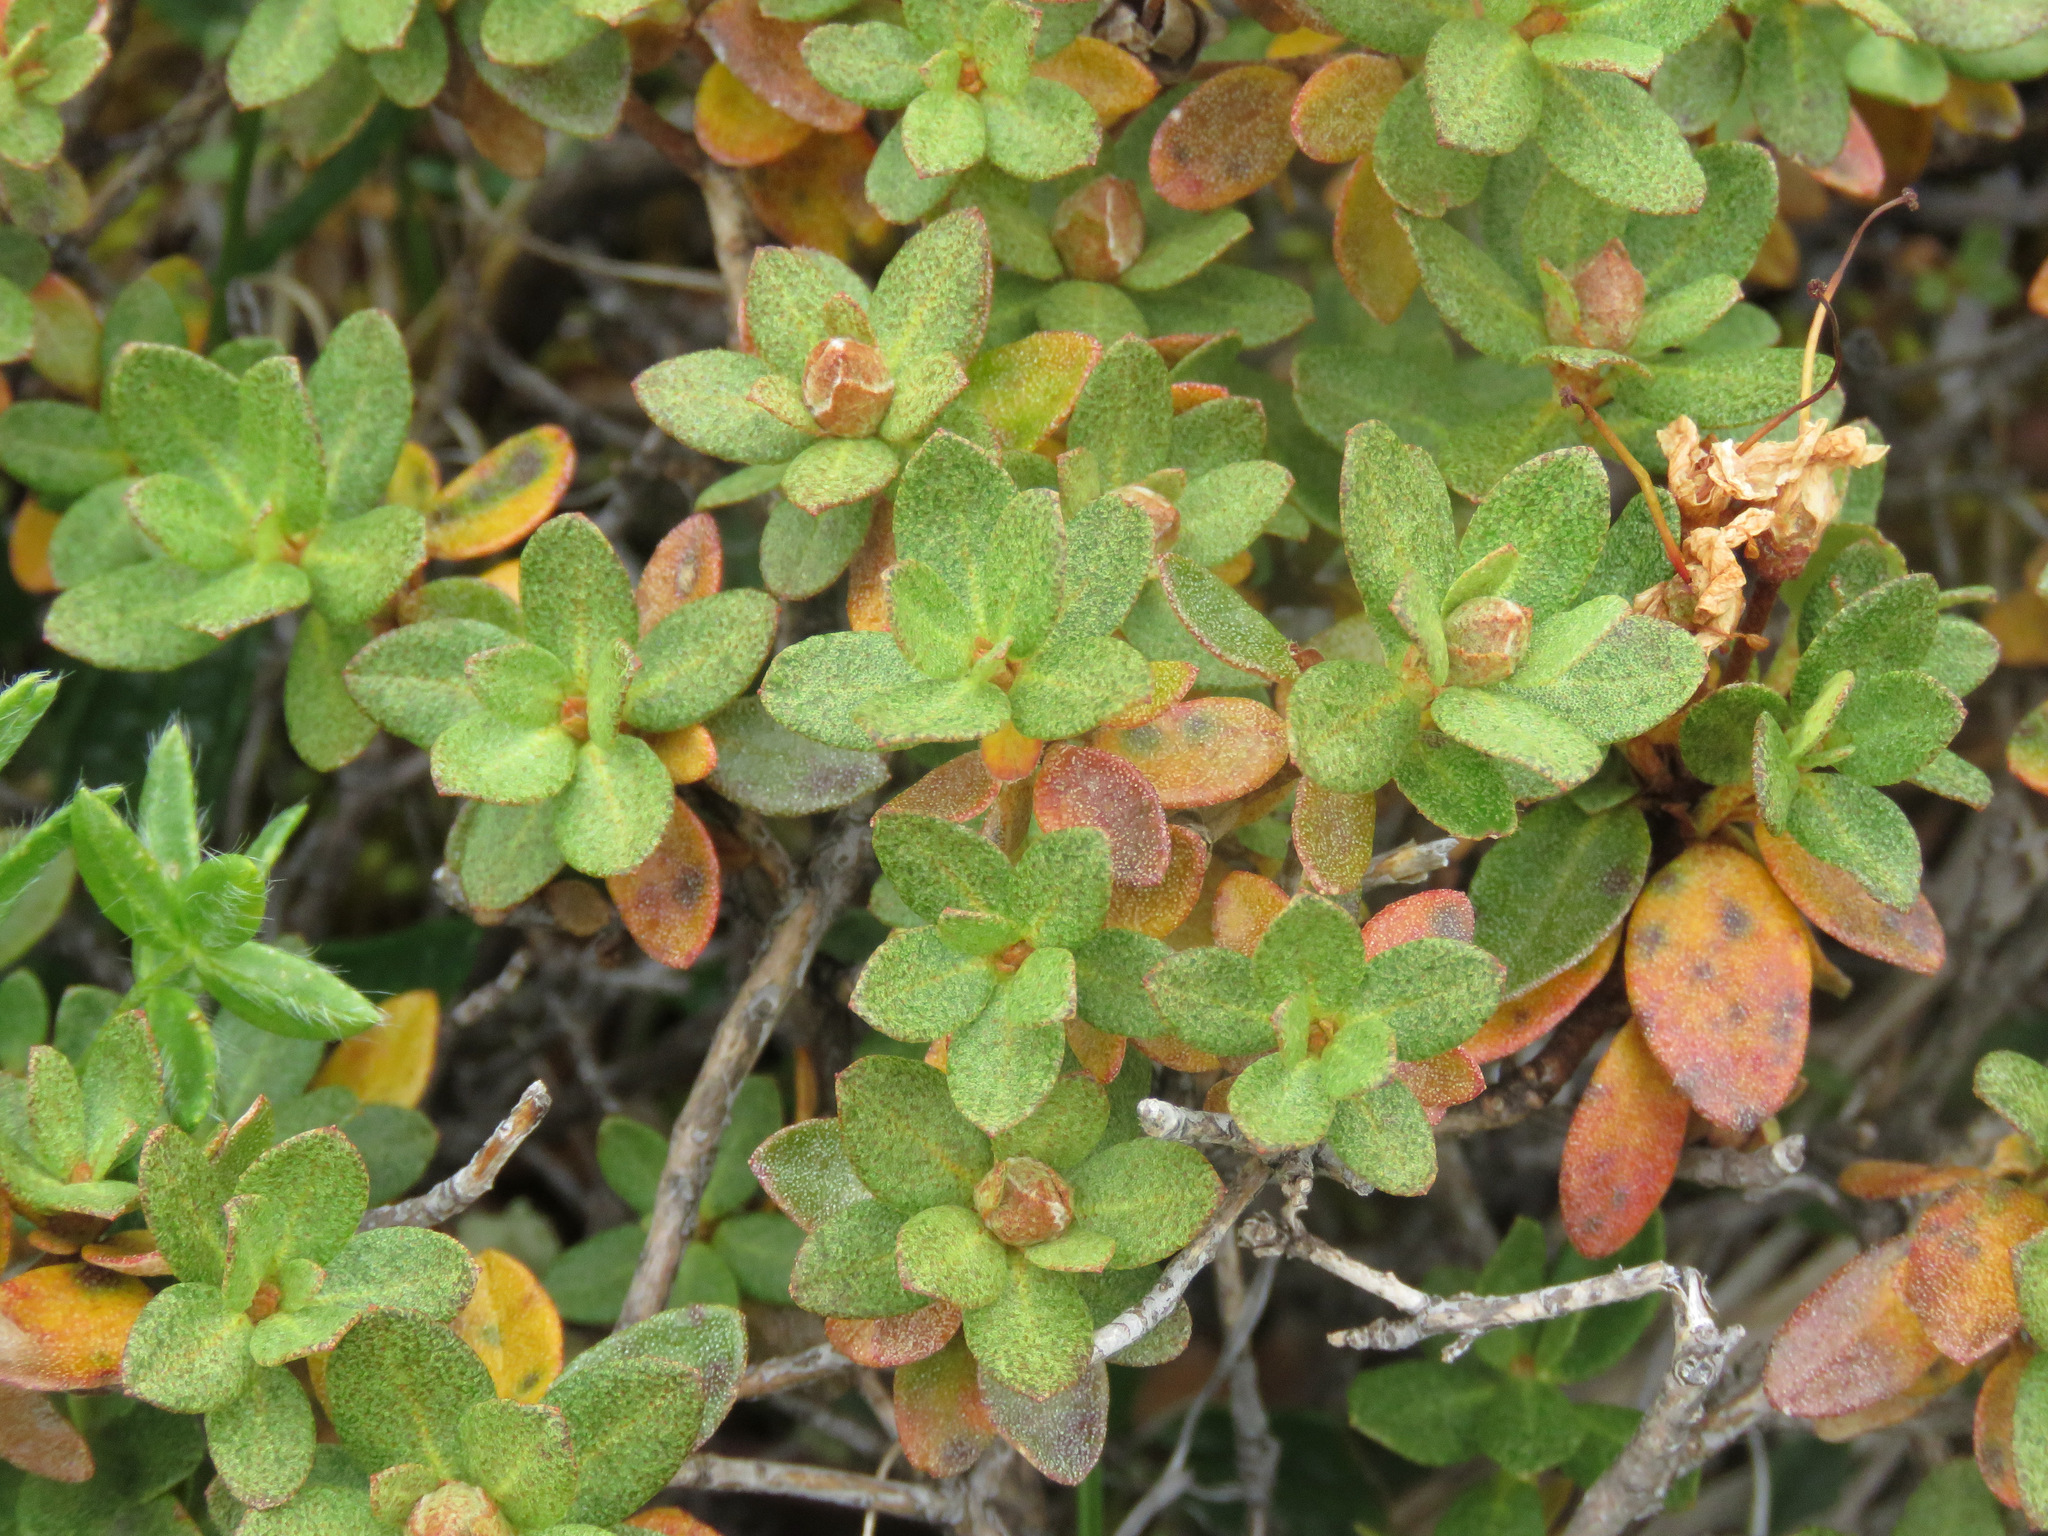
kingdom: Plantae
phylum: Tracheophyta
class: Magnoliopsida
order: Ericales
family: Ericaceae
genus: Rhododendron
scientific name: Rhododendron lapponicum
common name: Lapland rhododendron
